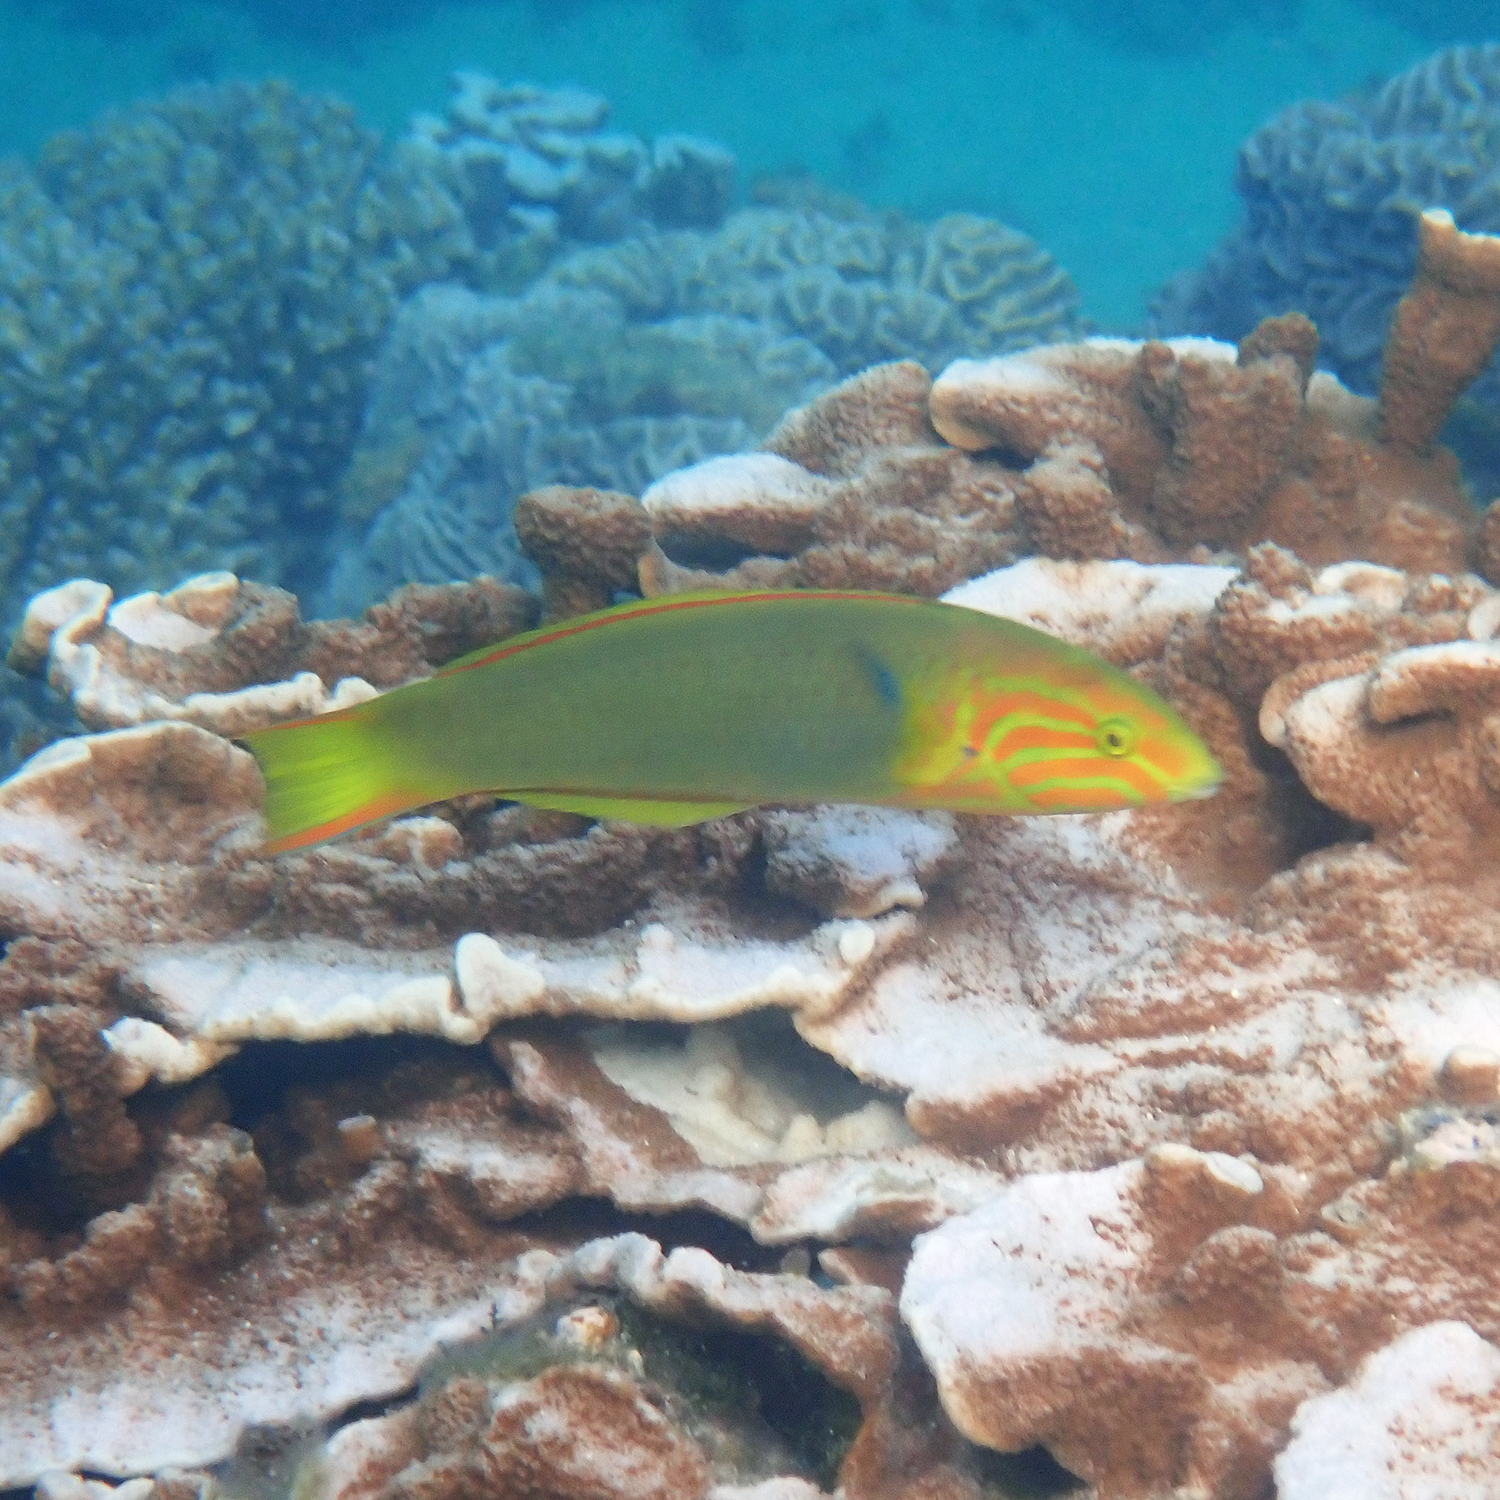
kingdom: Animalia
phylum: Chordata
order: Perciformes
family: Labridae
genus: Thalassoma
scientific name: Thalassoma lutescens
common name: Green moon wrasse
